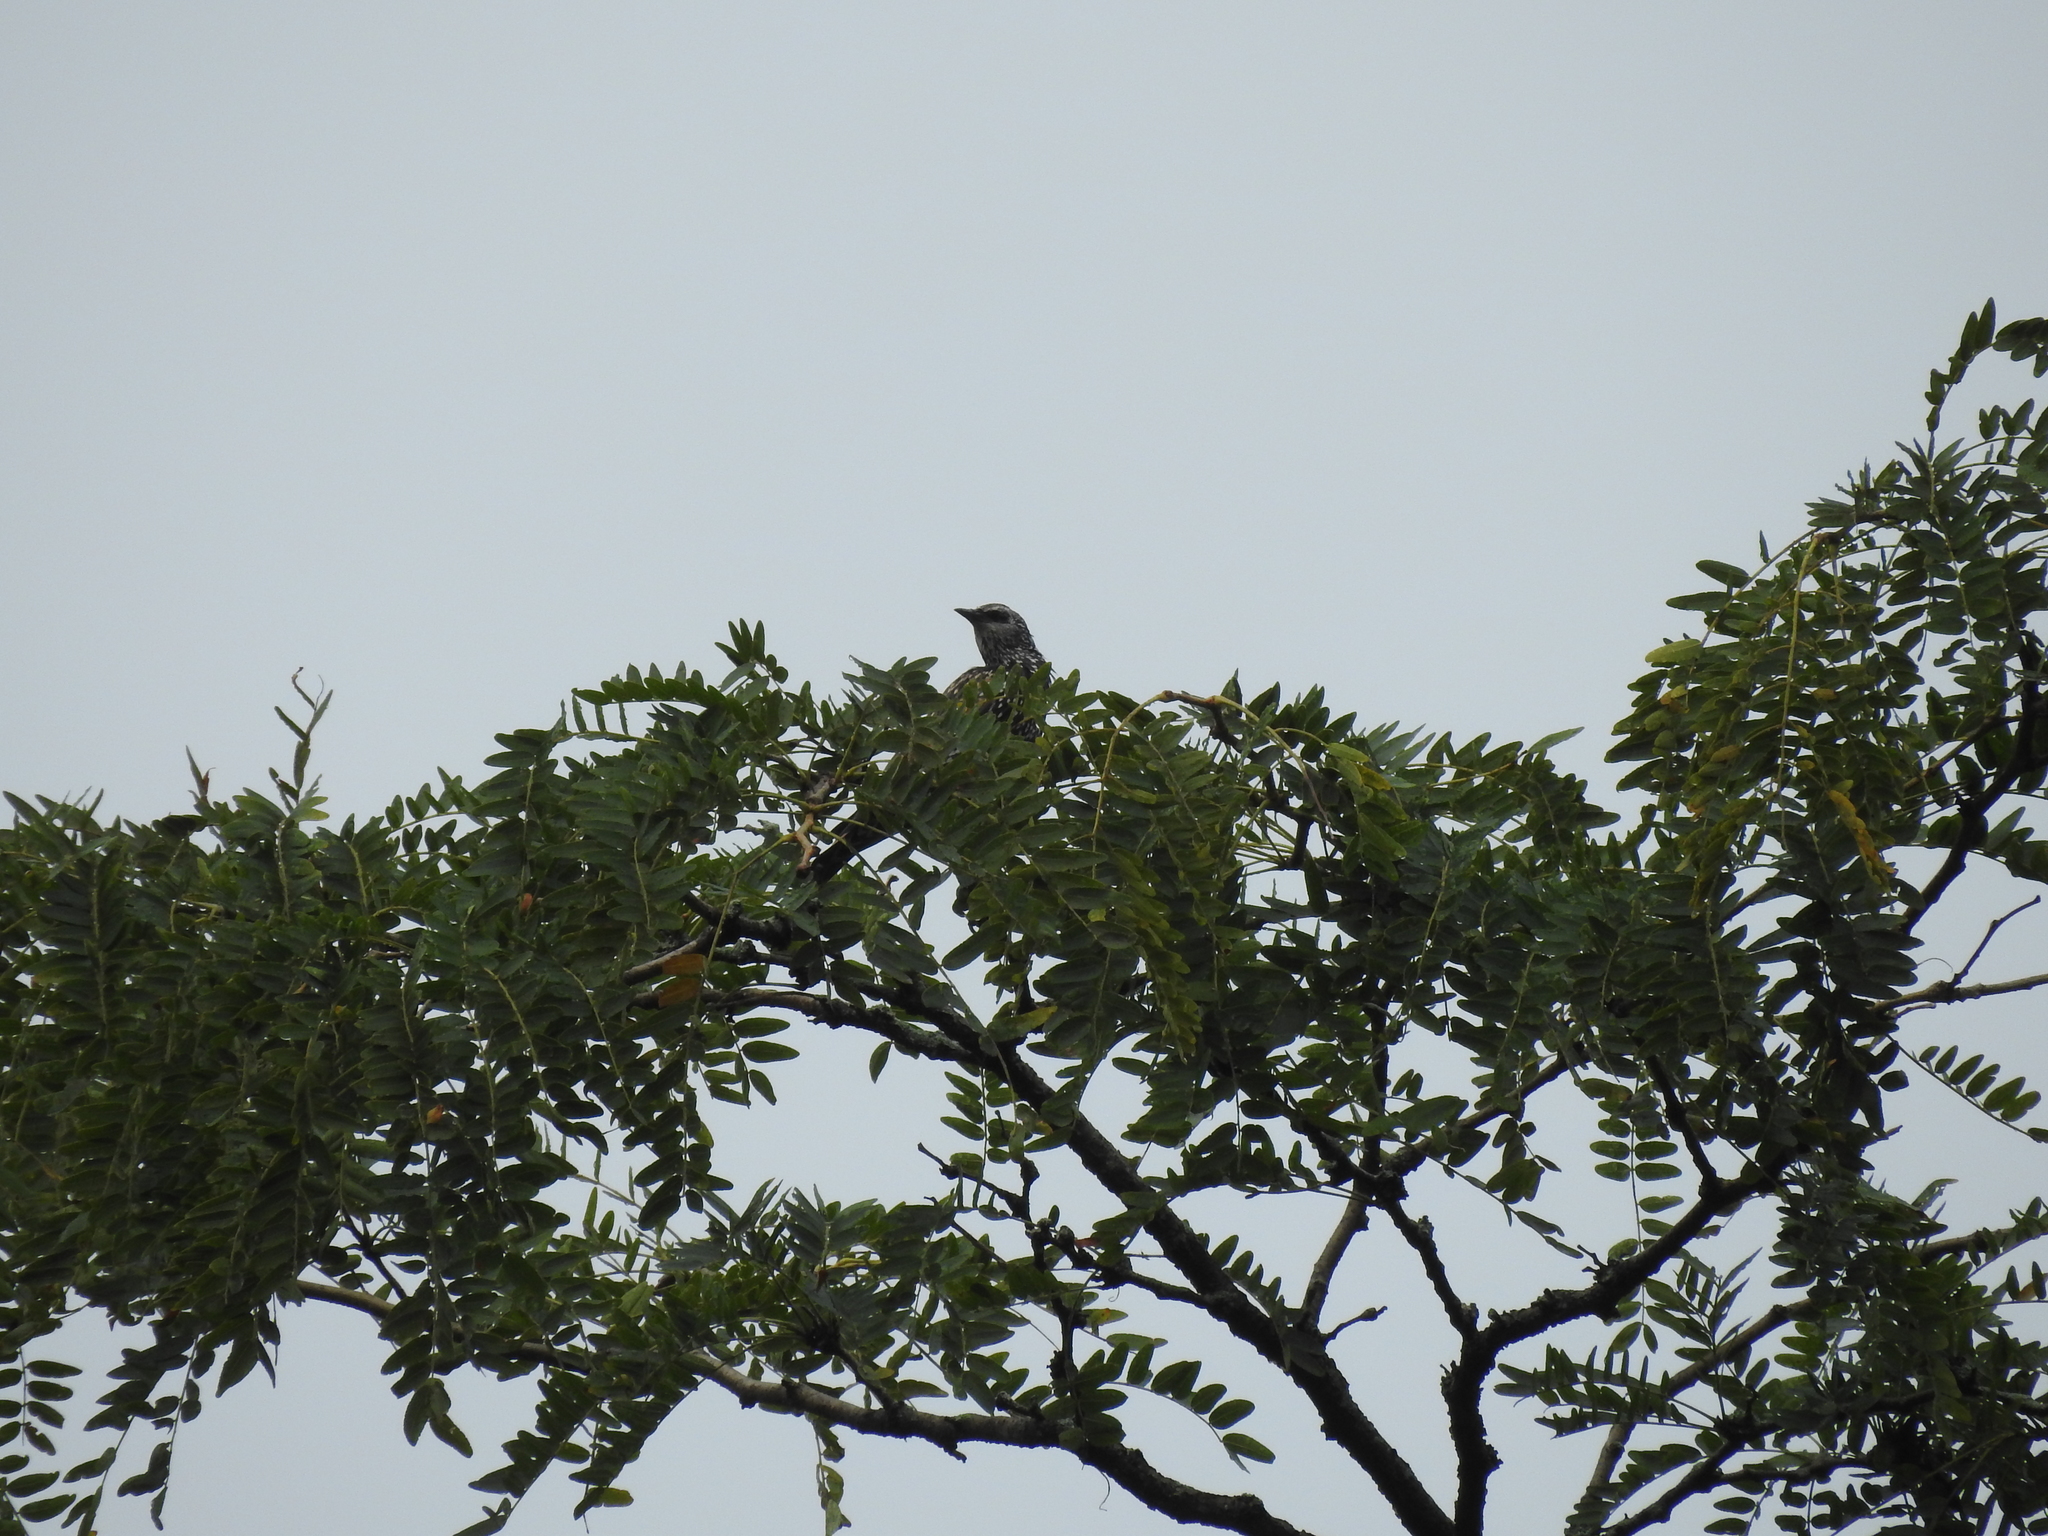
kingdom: Animalia
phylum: Chordata
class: Aves
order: Passeriformes
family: Sturnidae
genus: Sturnus
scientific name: Sturnus vulgaris
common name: Common starling
